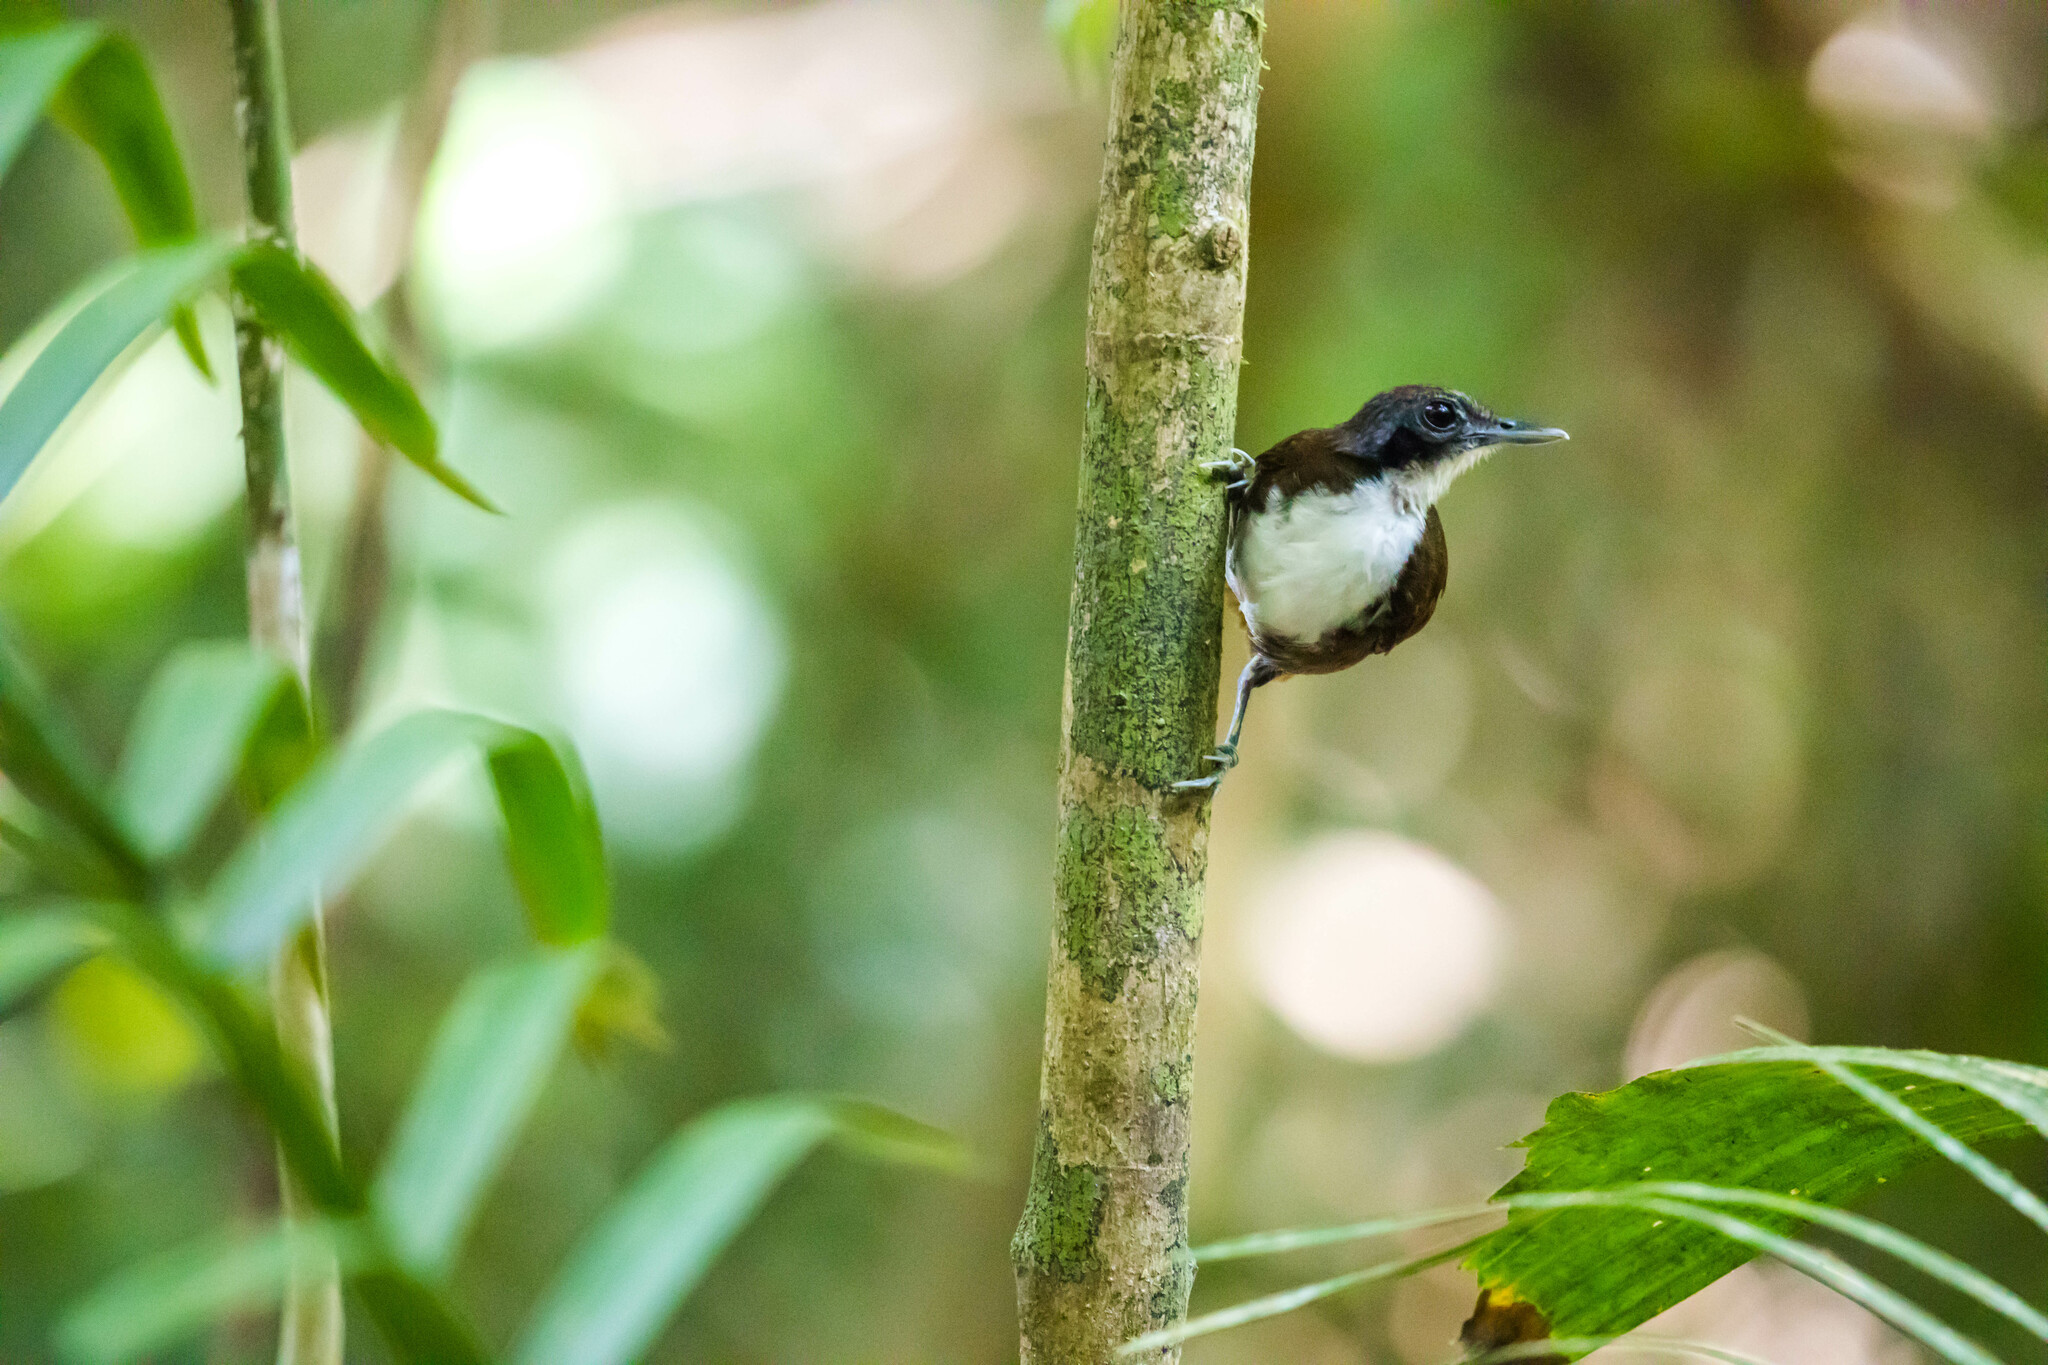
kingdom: Animalia
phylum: Chordata
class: Aves
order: Passeriformes
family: Thamnophilidae
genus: Gymnopithys
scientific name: Gymnopithys leucaspis
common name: White-cheeked antbird
